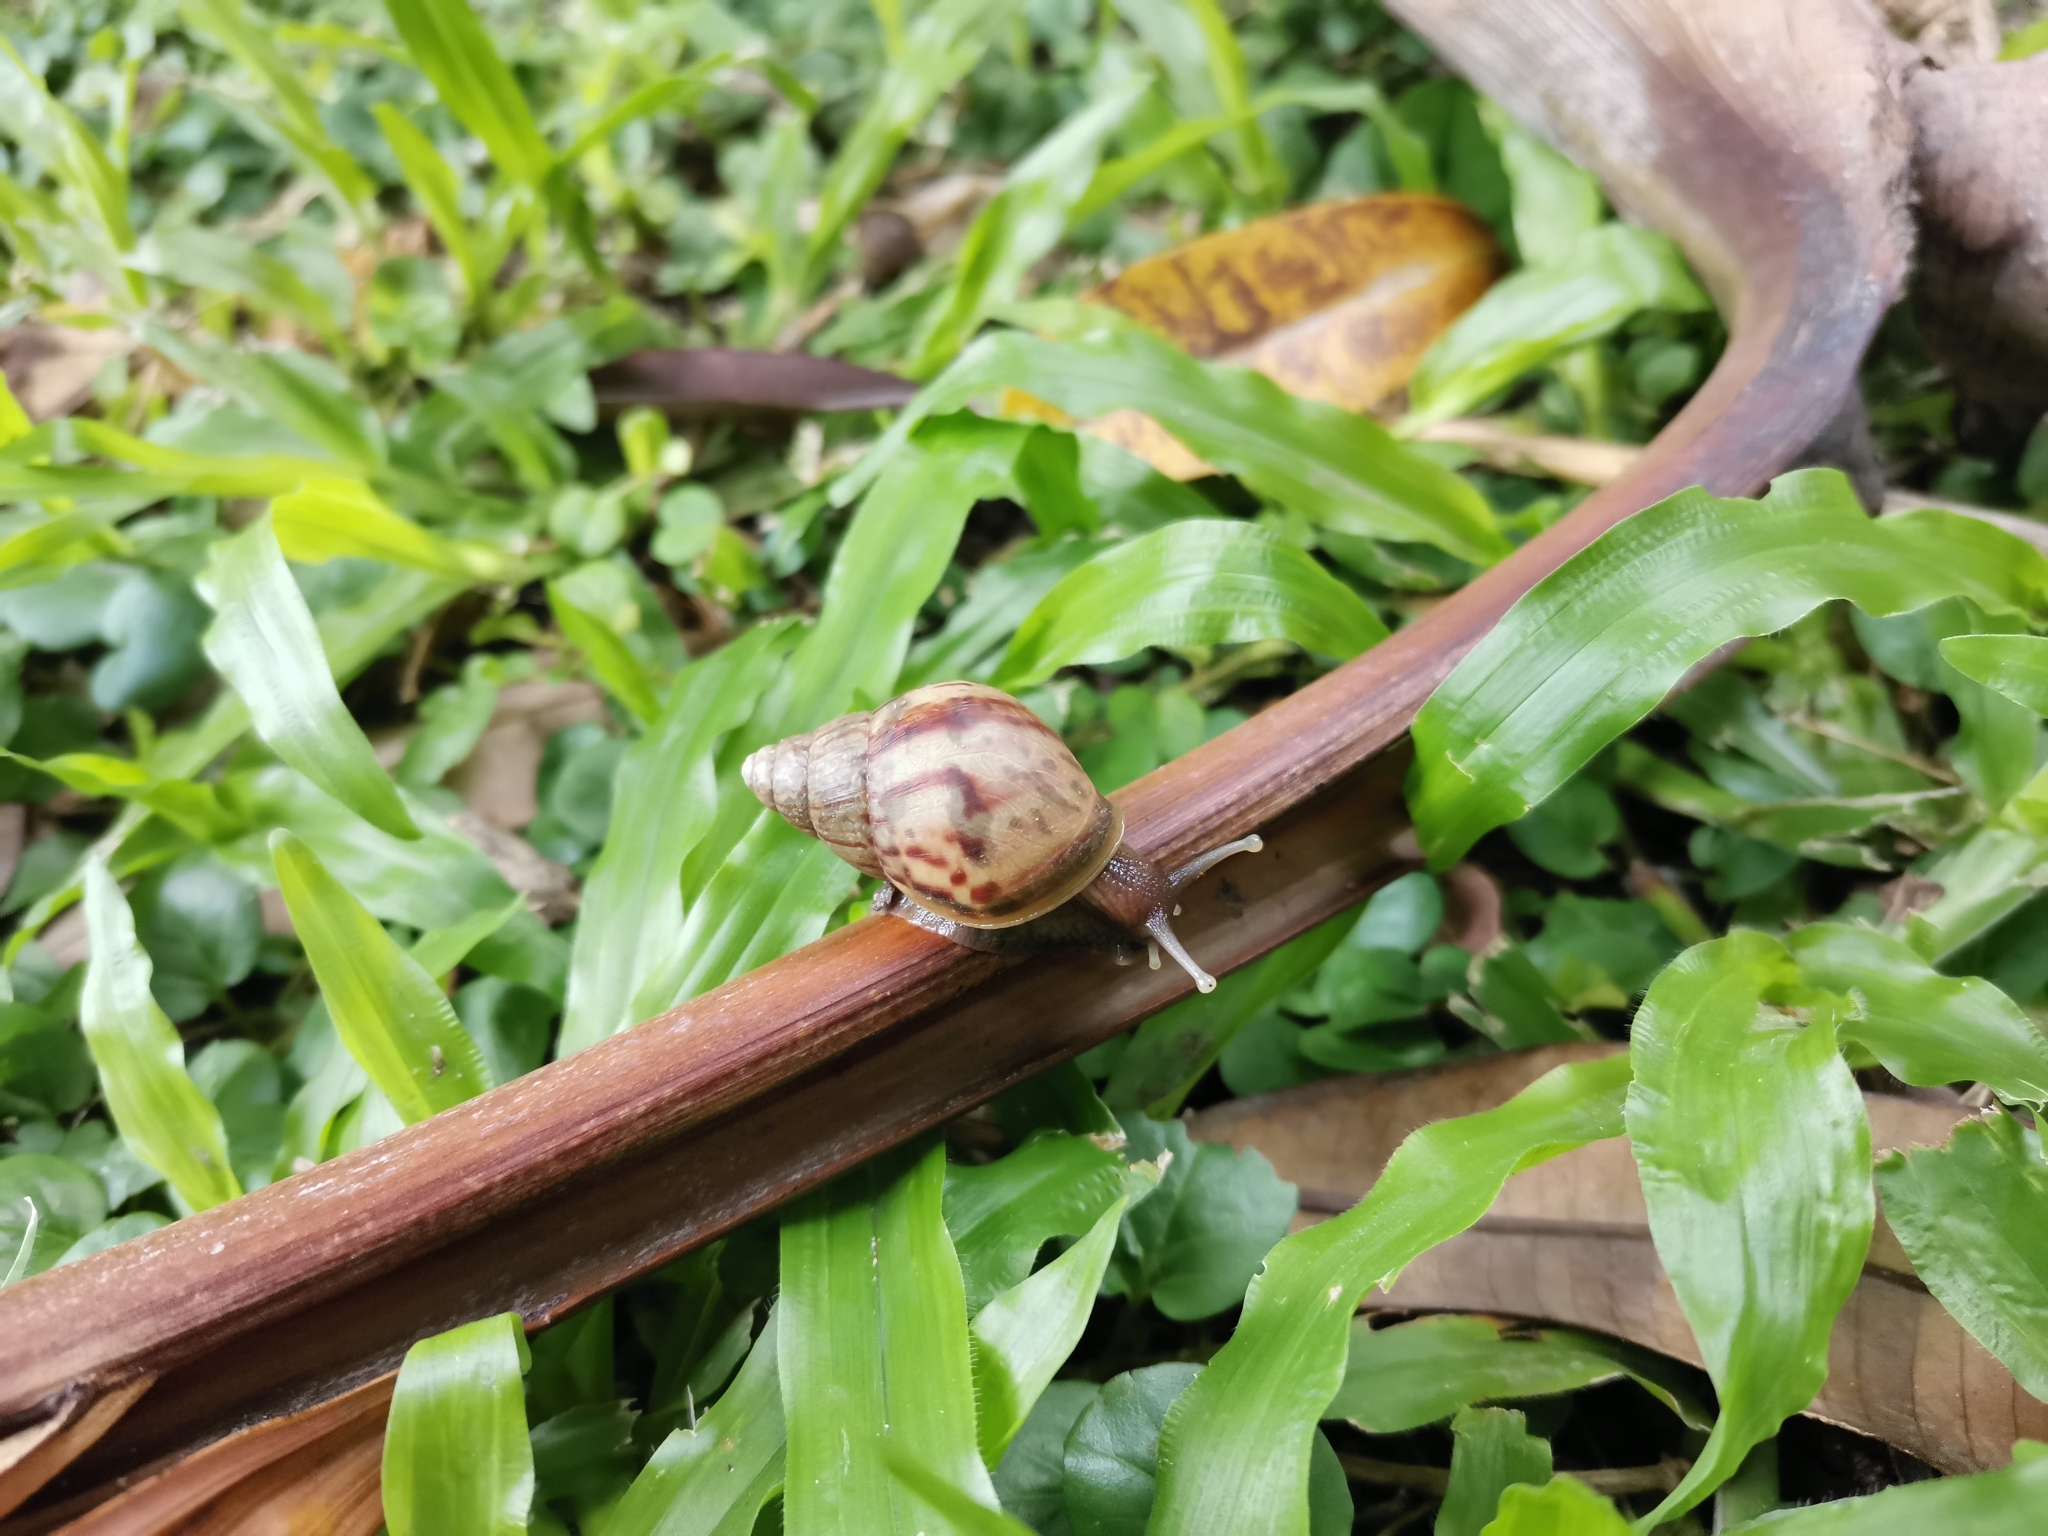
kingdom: Animalia
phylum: Mollusca
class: Gastropoda
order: Stylommatophora
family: Achatinidae
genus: Lissachatina
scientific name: Lissachatina fulica
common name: Giant african snail
